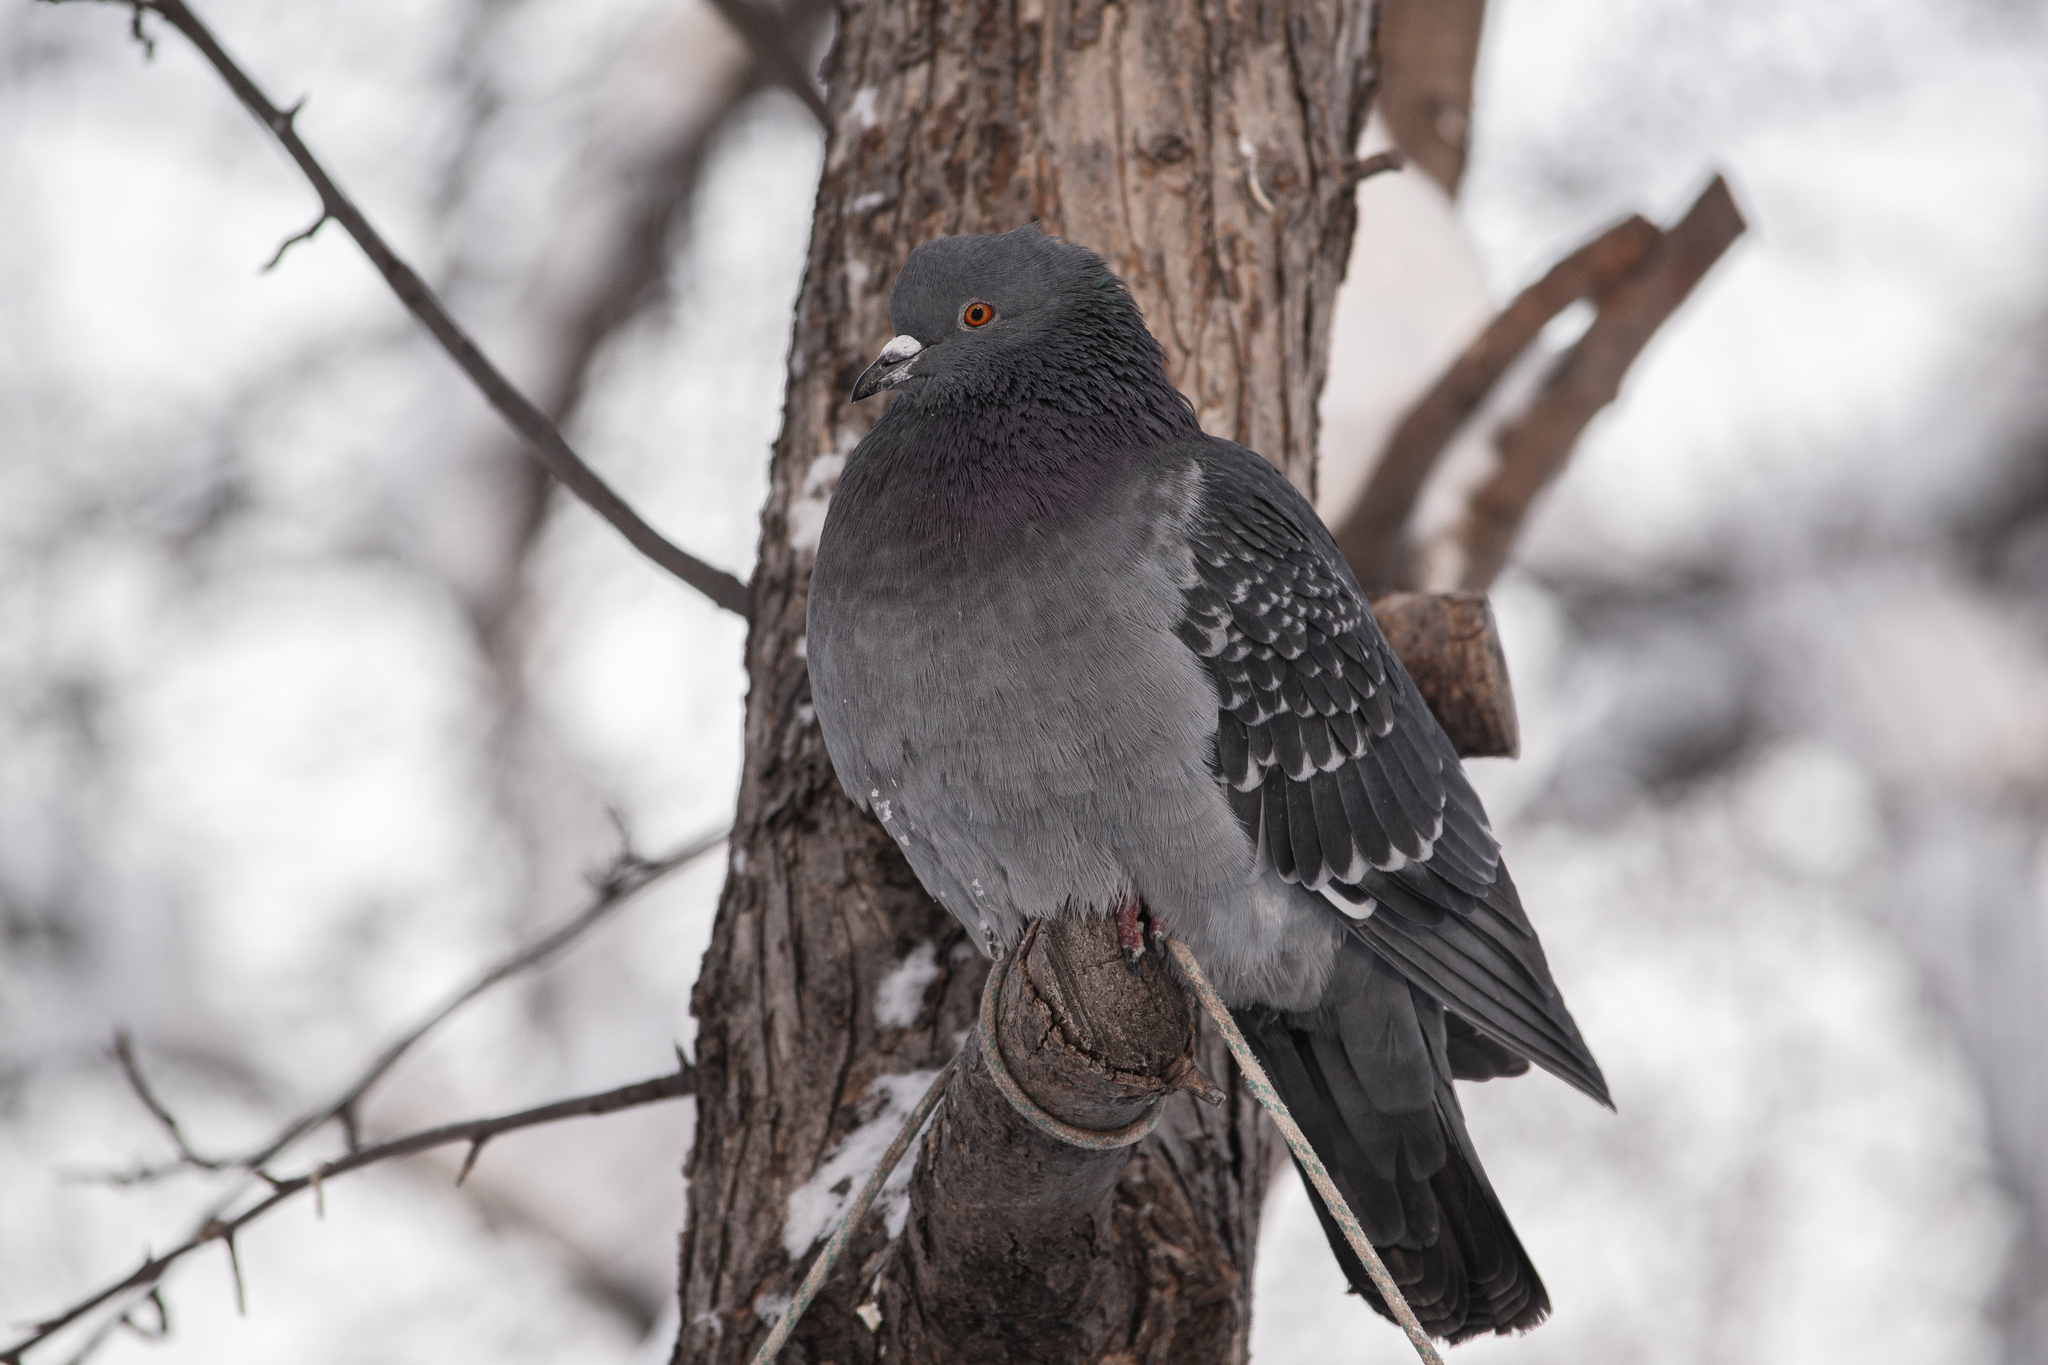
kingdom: Animalia
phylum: Chordata
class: Aves
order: Columbiformes
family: Columbidae
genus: Columba
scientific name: Columba livia
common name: Rock pigeon
